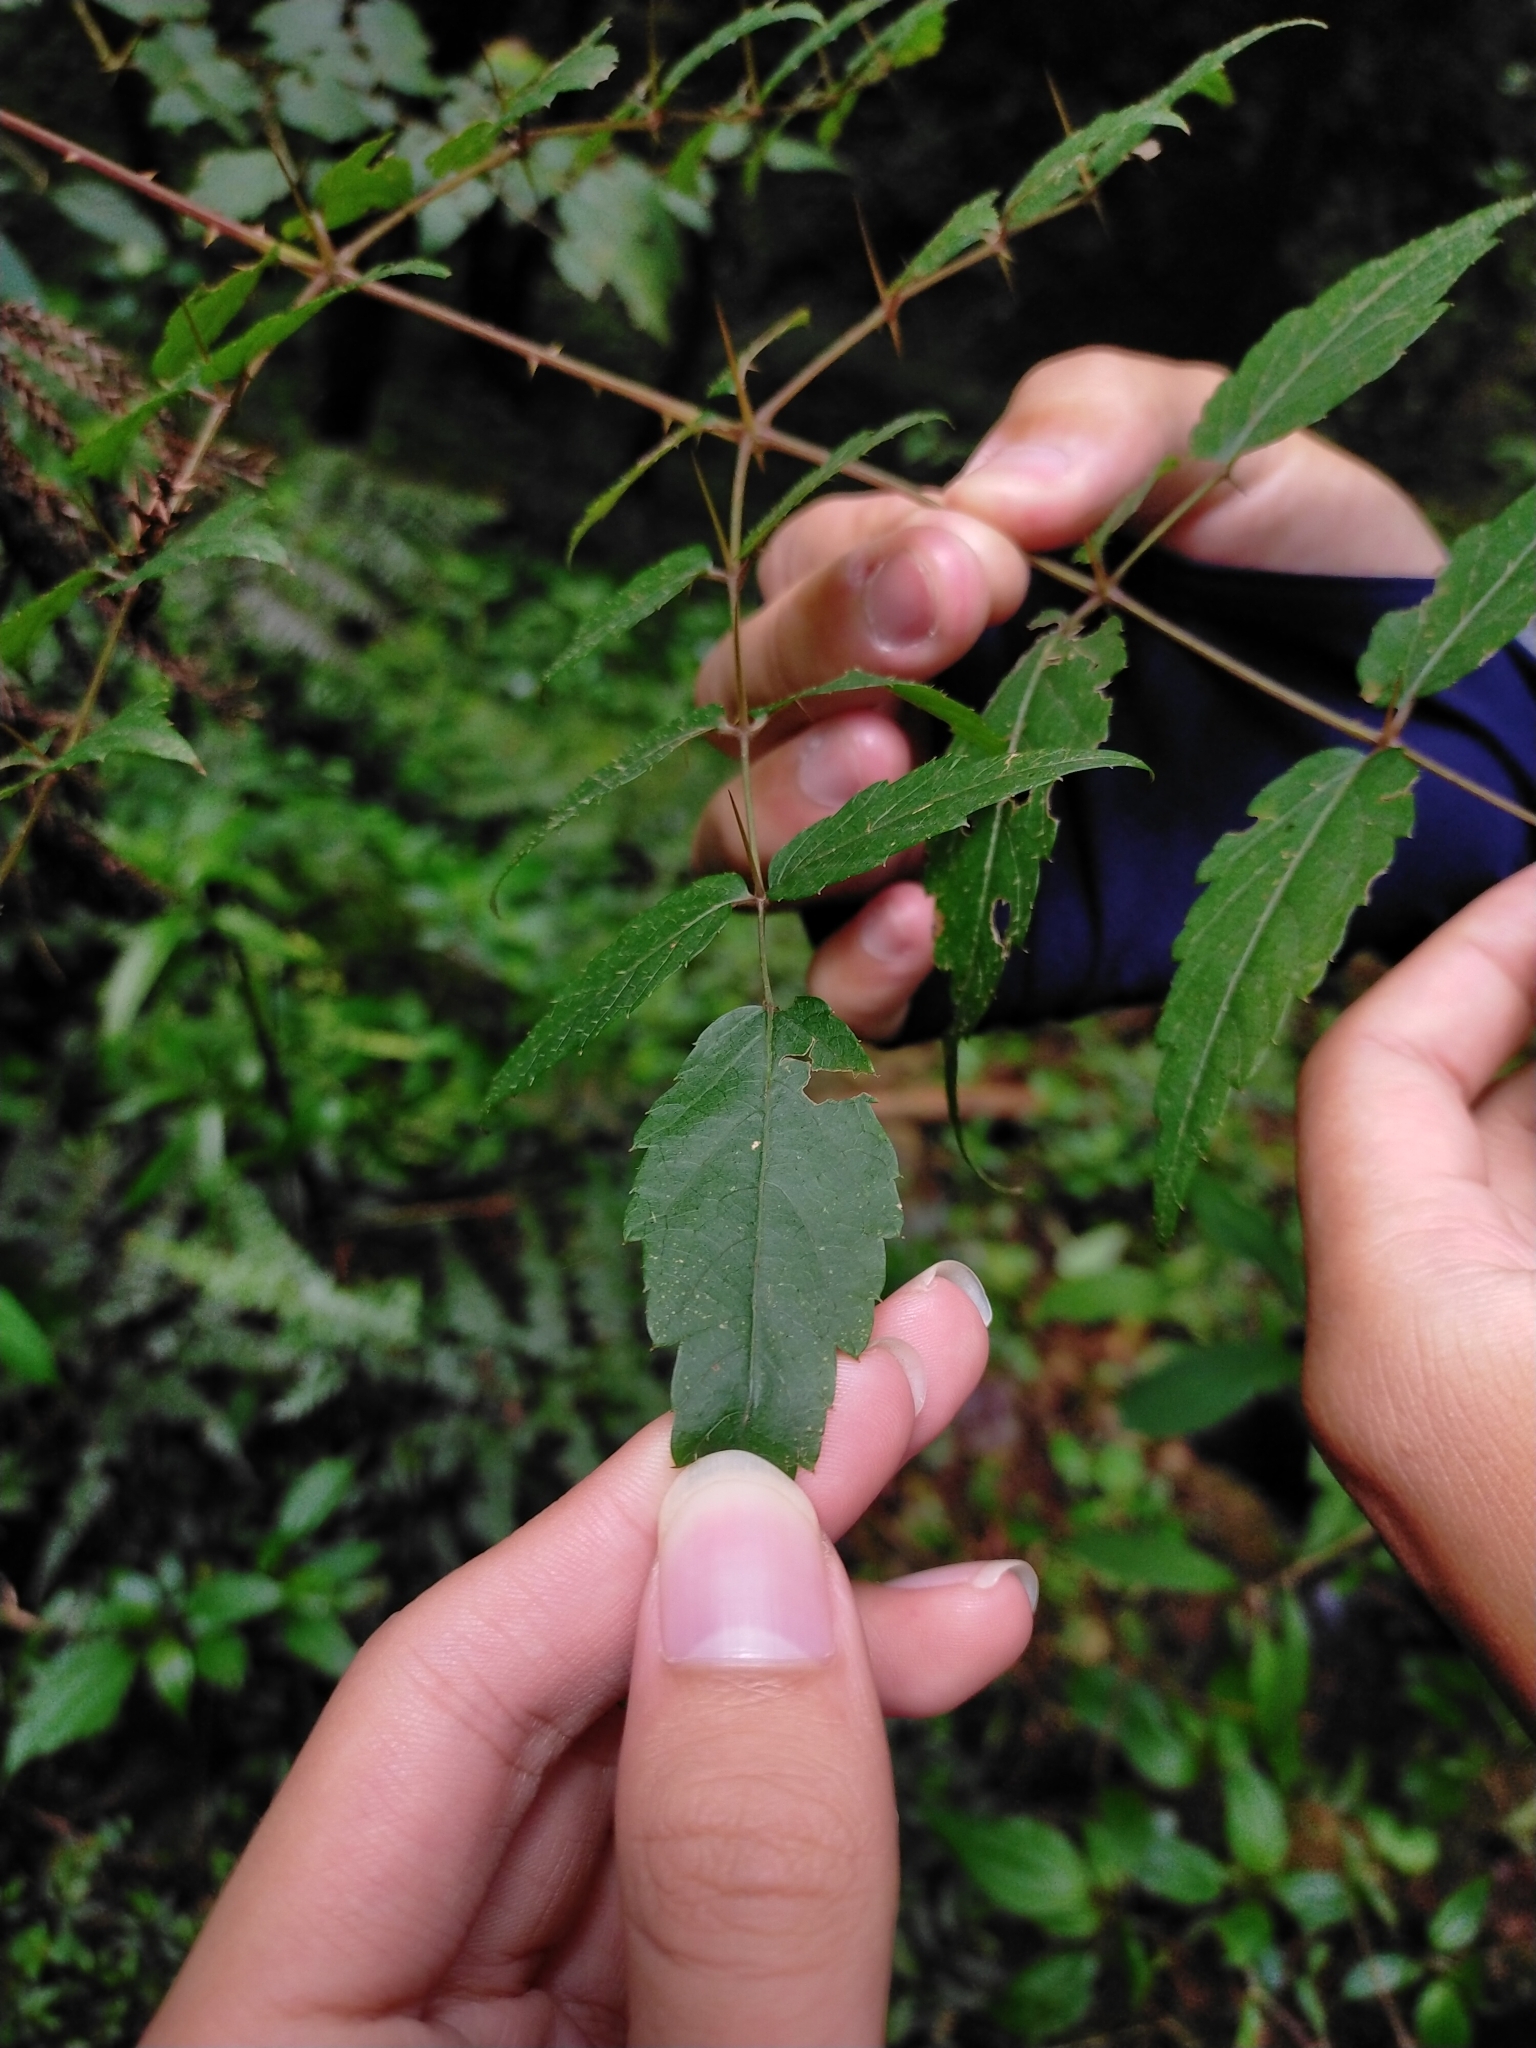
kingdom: Plantae
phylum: Tracheophyta
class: Magnoliopsida
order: Apiales
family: Araliaceae
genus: Aralia
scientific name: Aralia decaisneana
